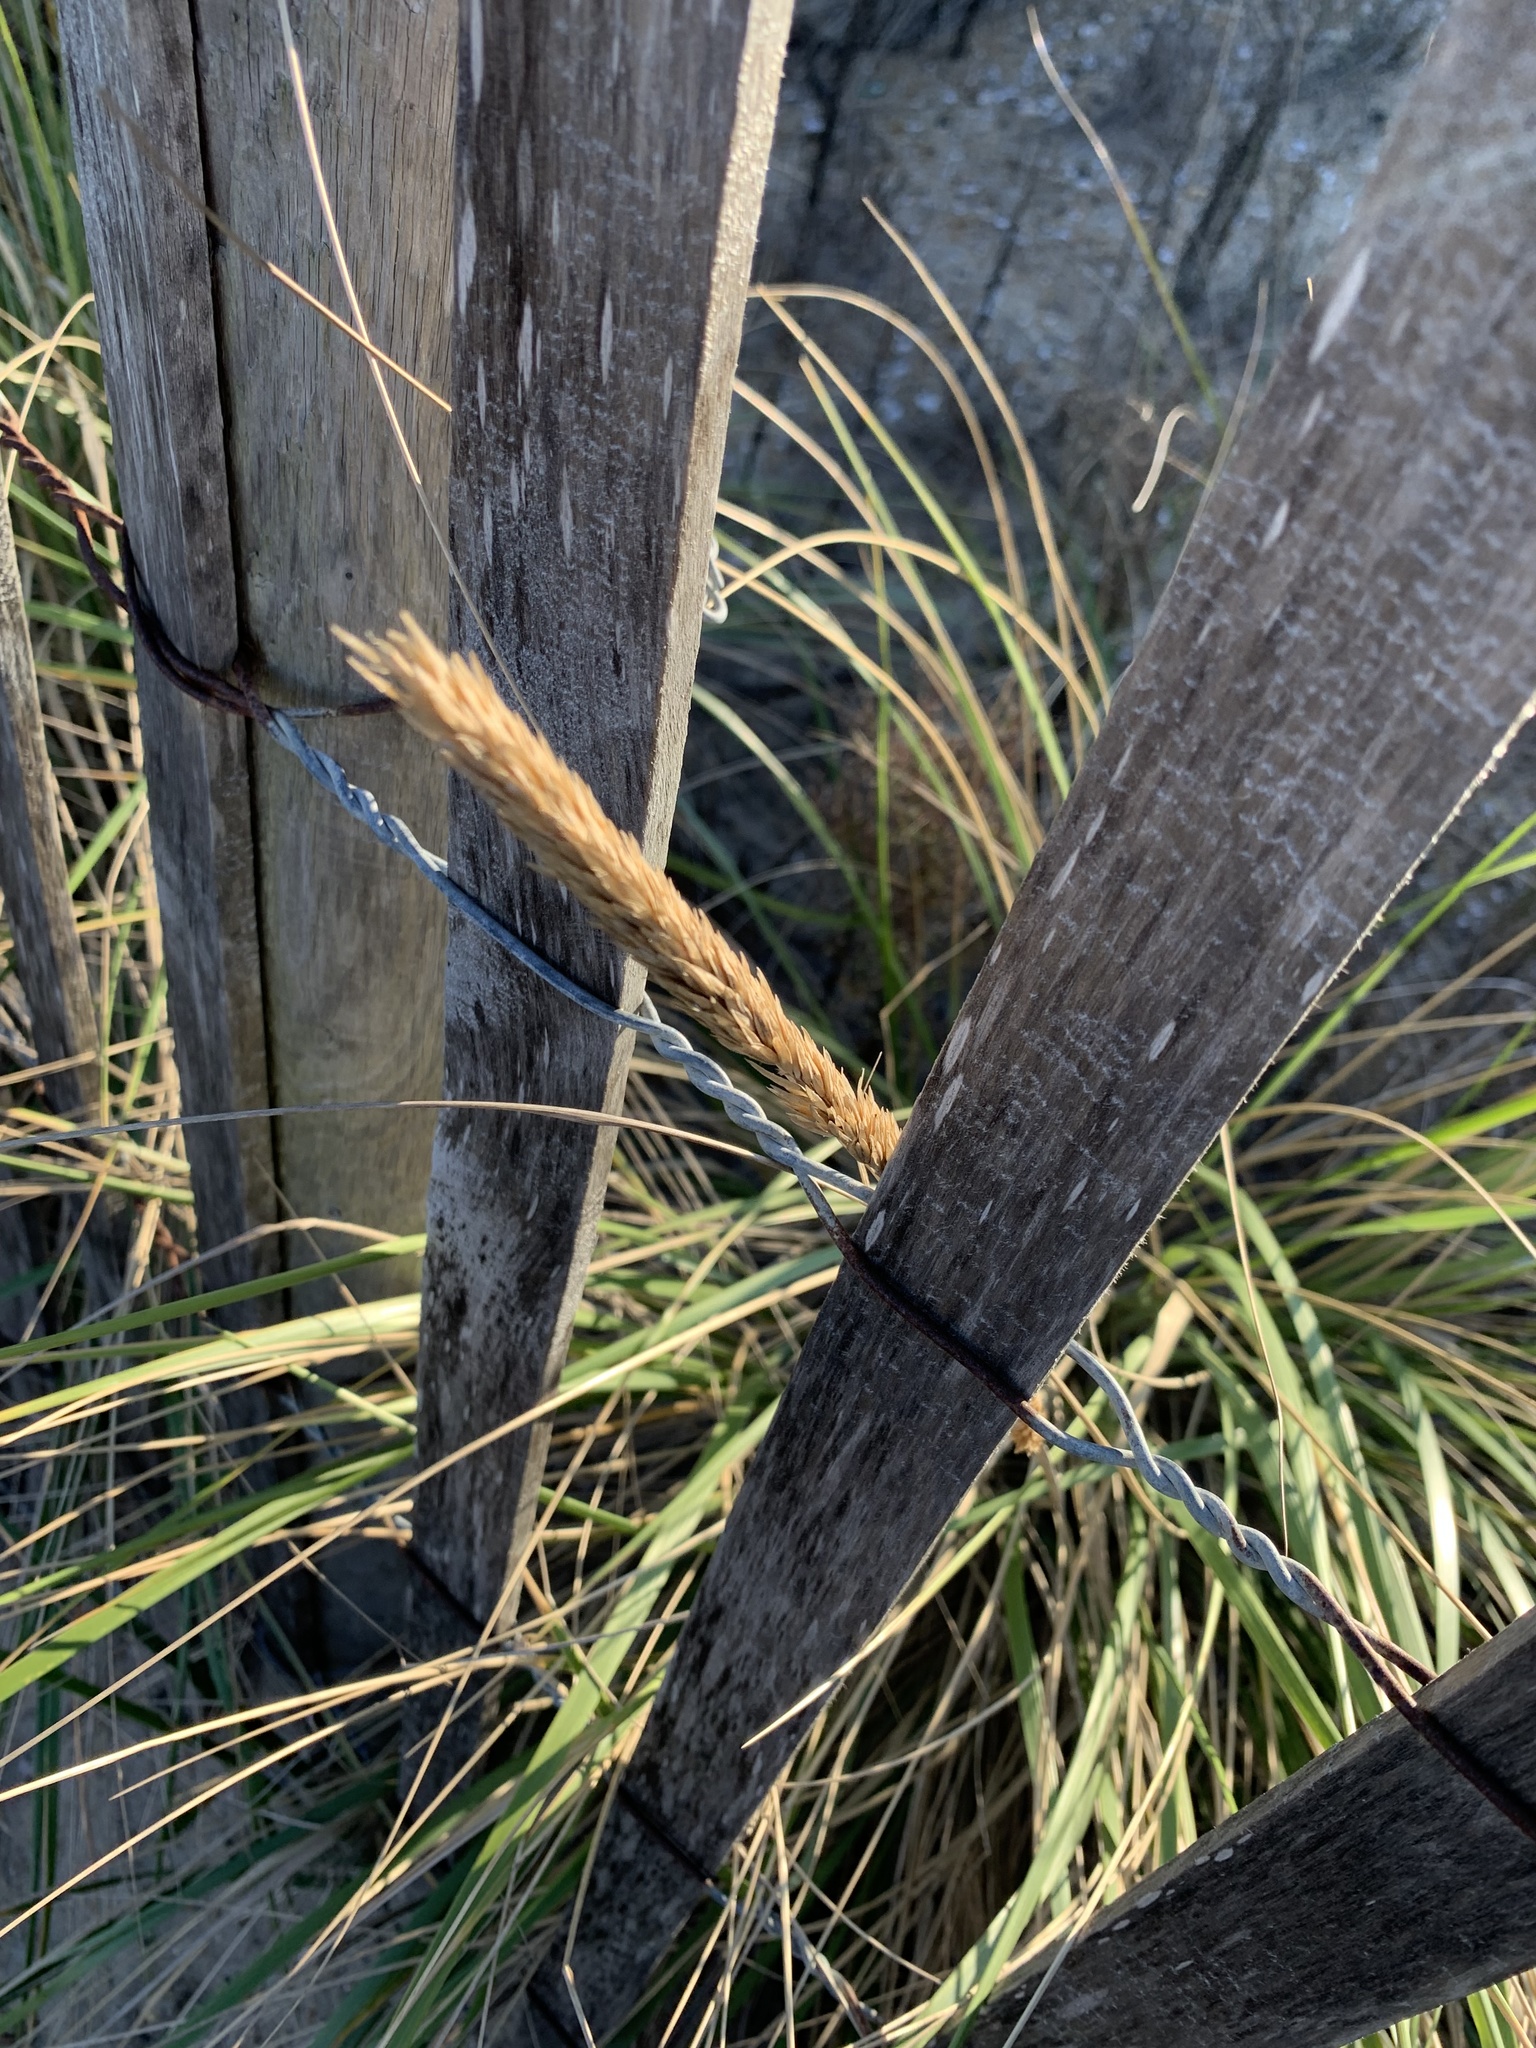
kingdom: Plantae
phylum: Tracheophyta
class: Liliopsida
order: Poales
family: Poaceae
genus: Calamagrostis
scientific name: Calamagrostis breviligulata
